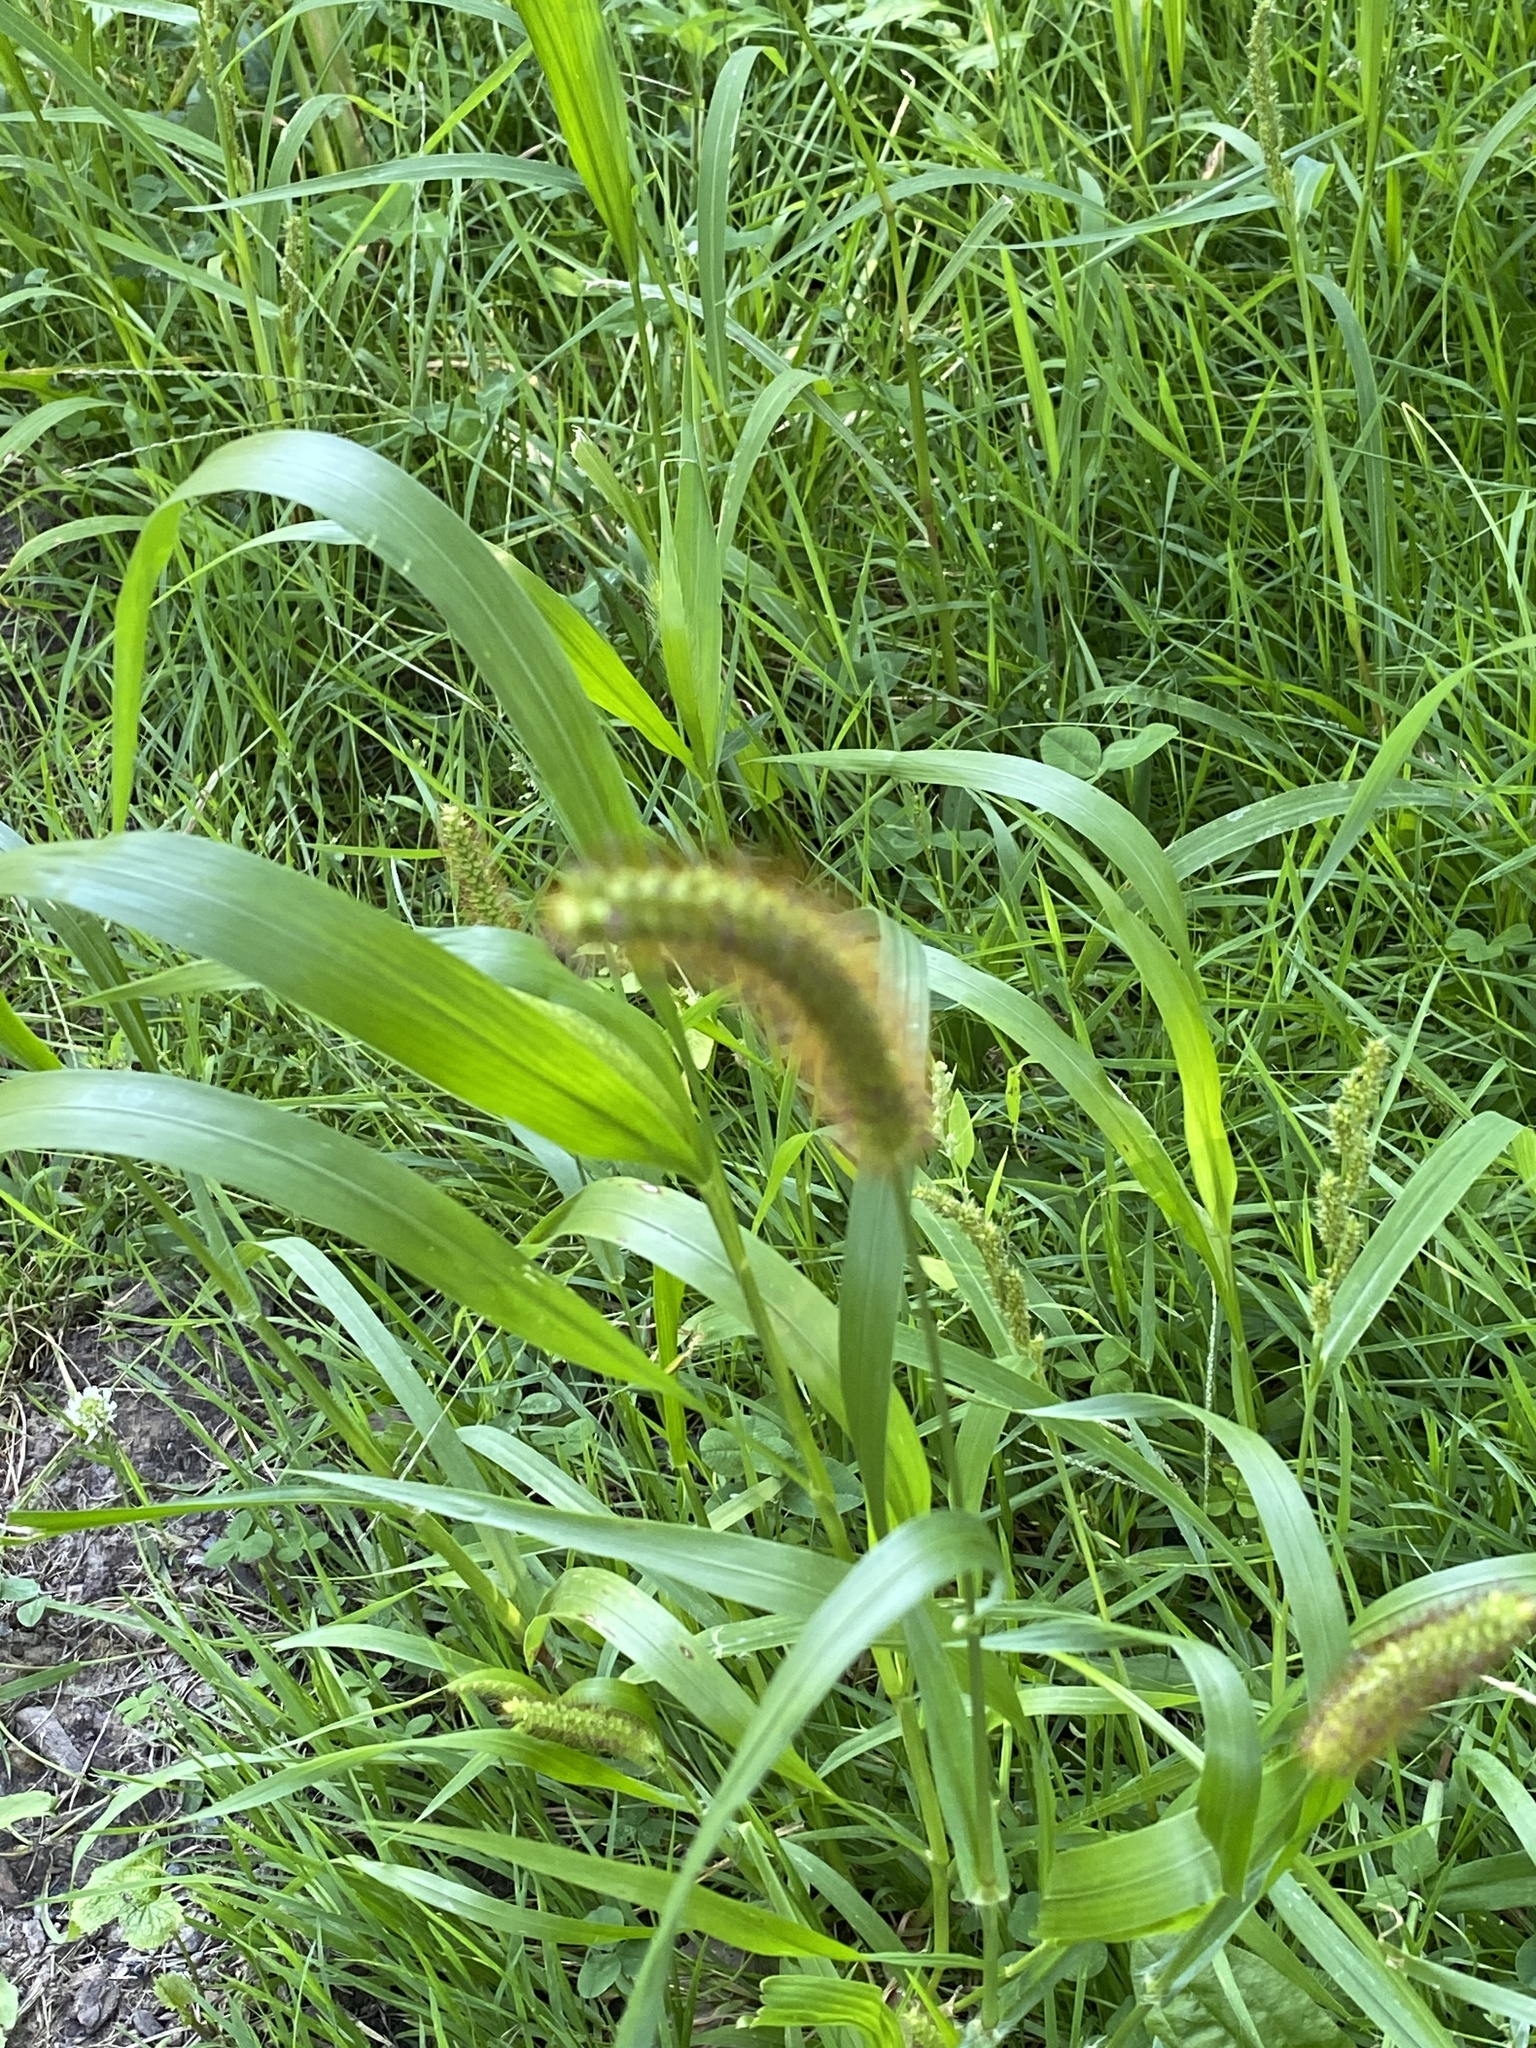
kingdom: Plantae
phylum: Tracheophyta
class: Liliopsida
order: Poales
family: Poaceae
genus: Setaria
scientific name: Setaria pumila
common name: Yellow bristle-grass
